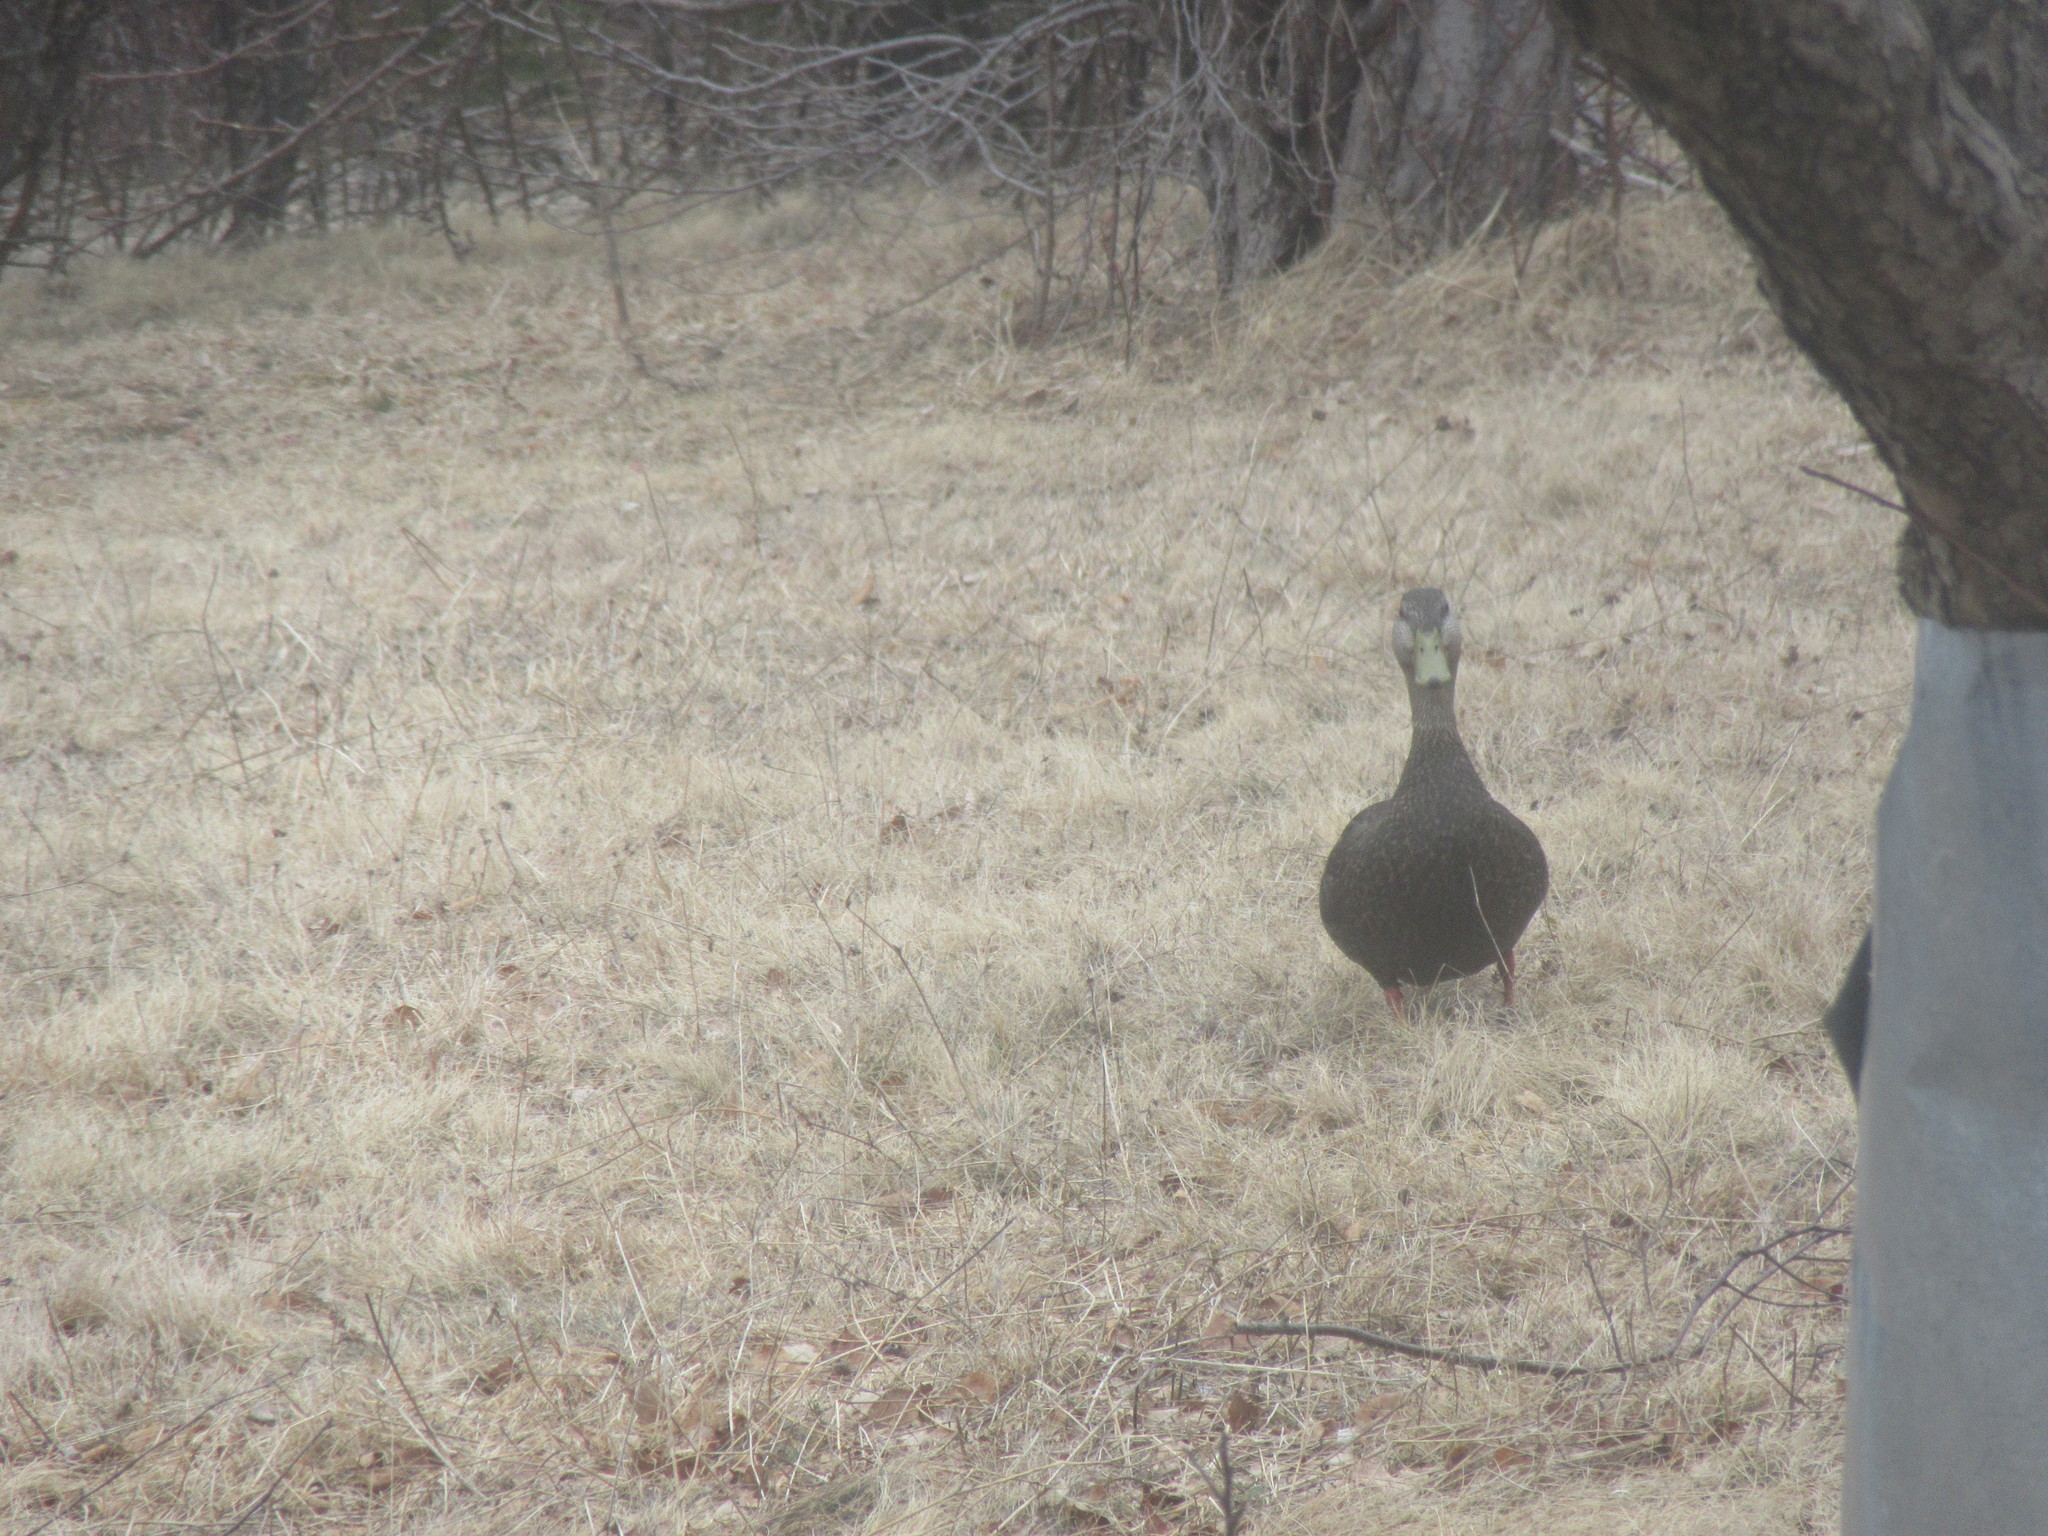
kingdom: Animalia
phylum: Chordata
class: Aves
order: Anseriformes
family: Anatidae
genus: Anas
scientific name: Anas rubripes
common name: American black duck
